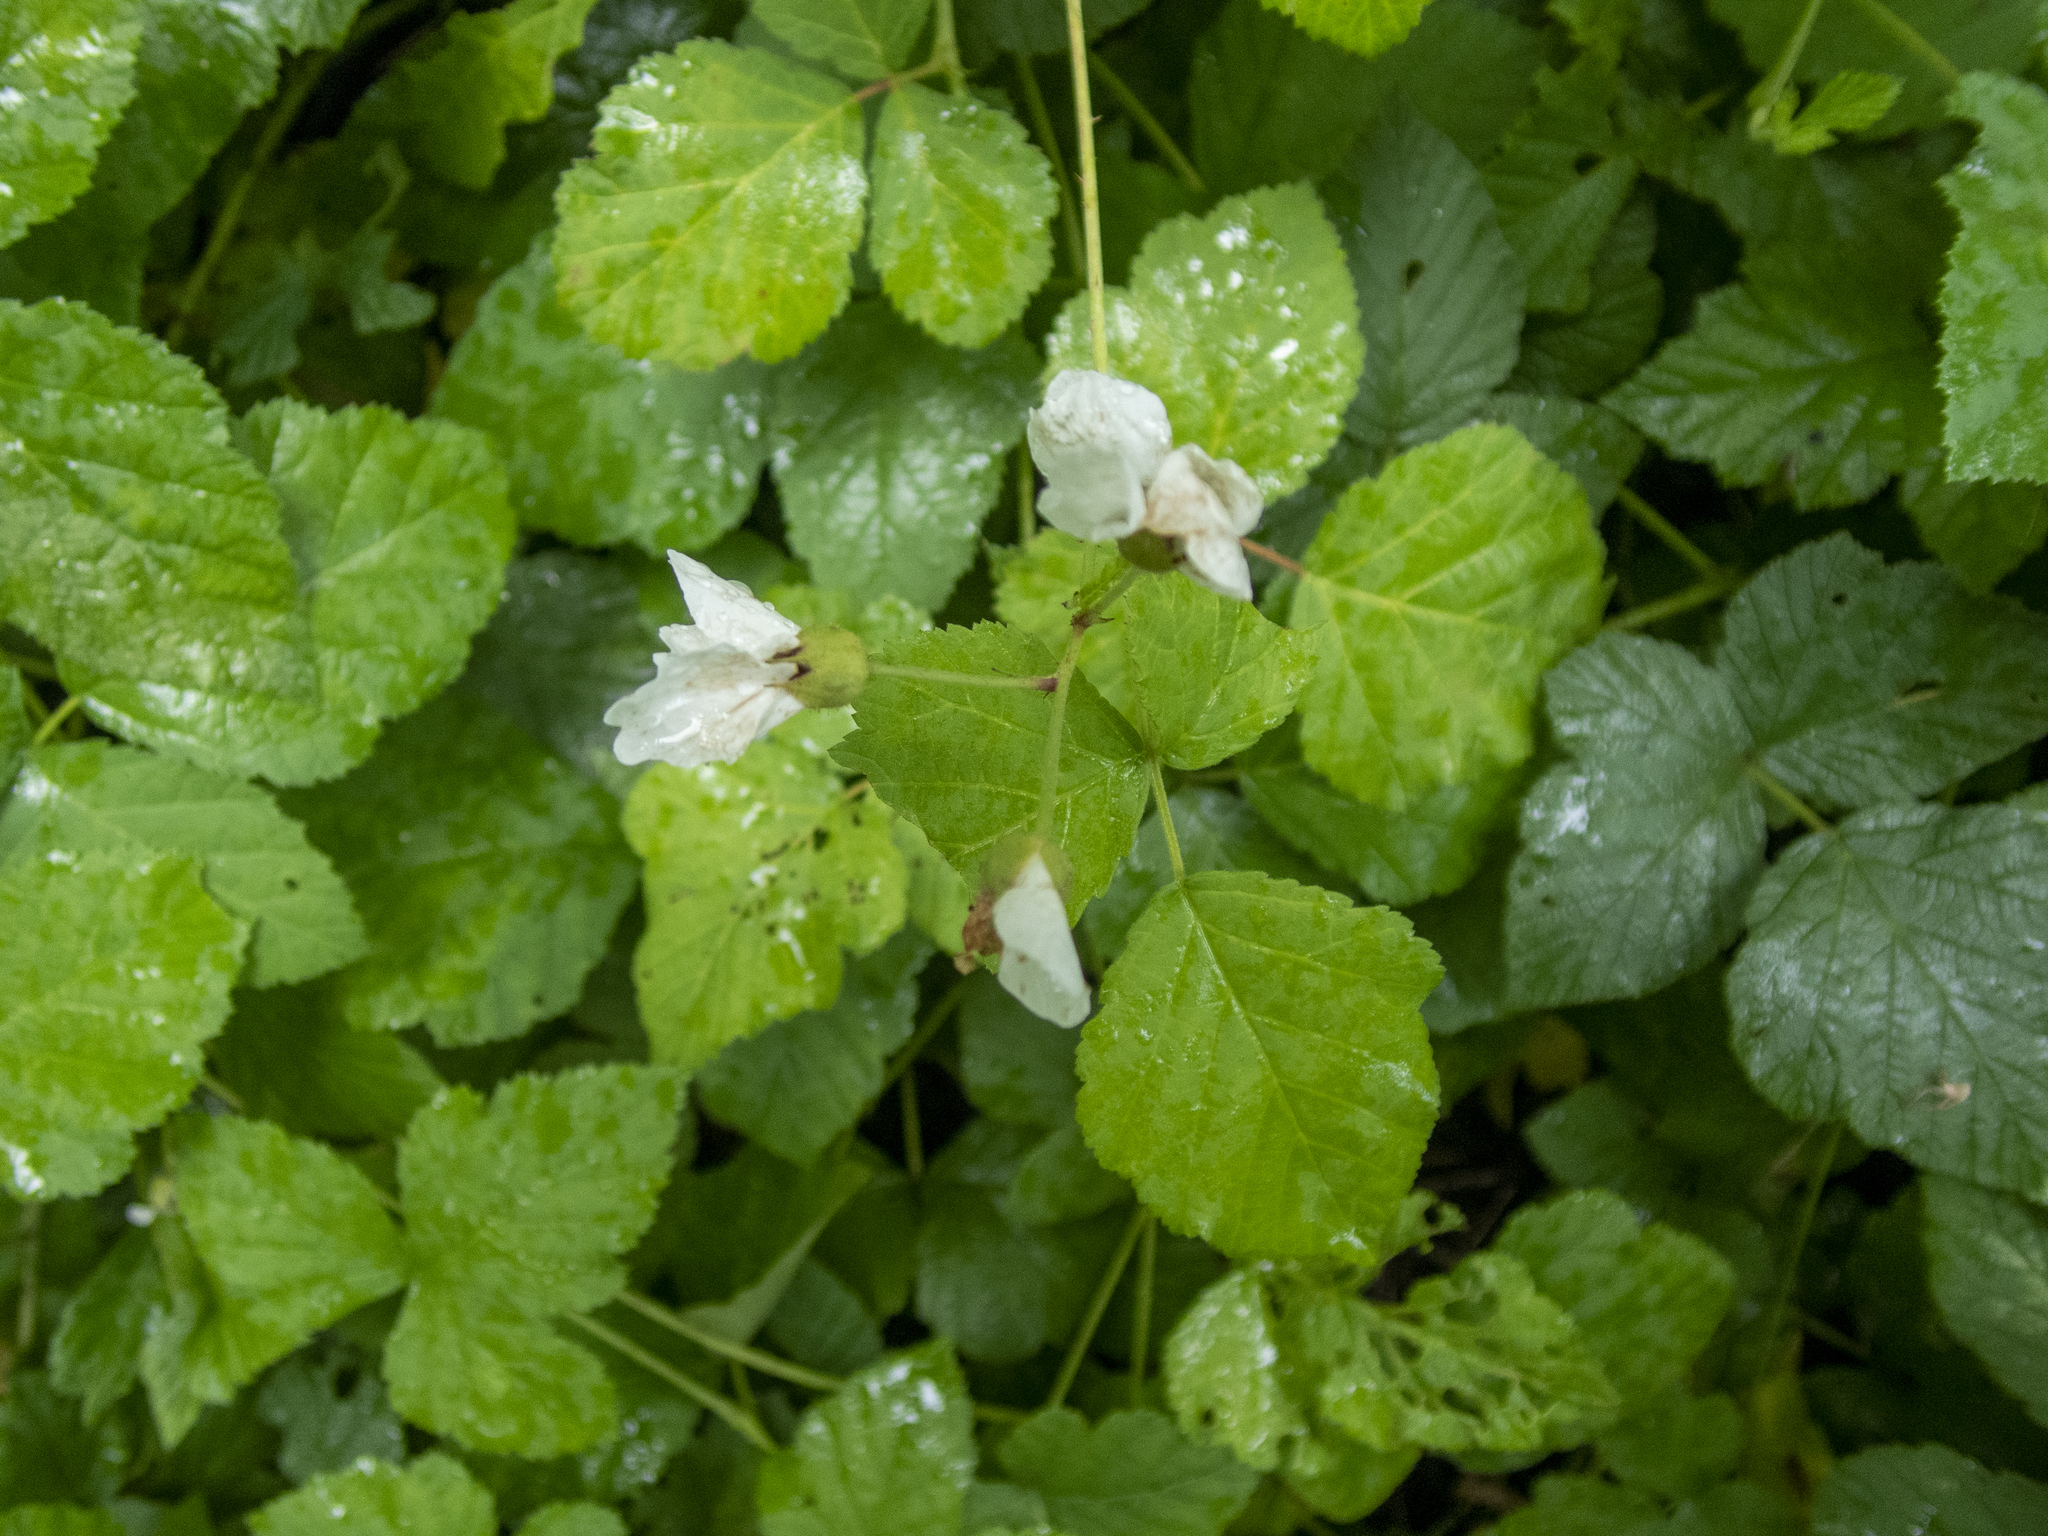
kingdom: Plantae
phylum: Tracheophyta
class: Magnoliopsida
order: Rosales
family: Rosaceae
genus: Rubus
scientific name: Rubus caesius
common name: Dewberry
